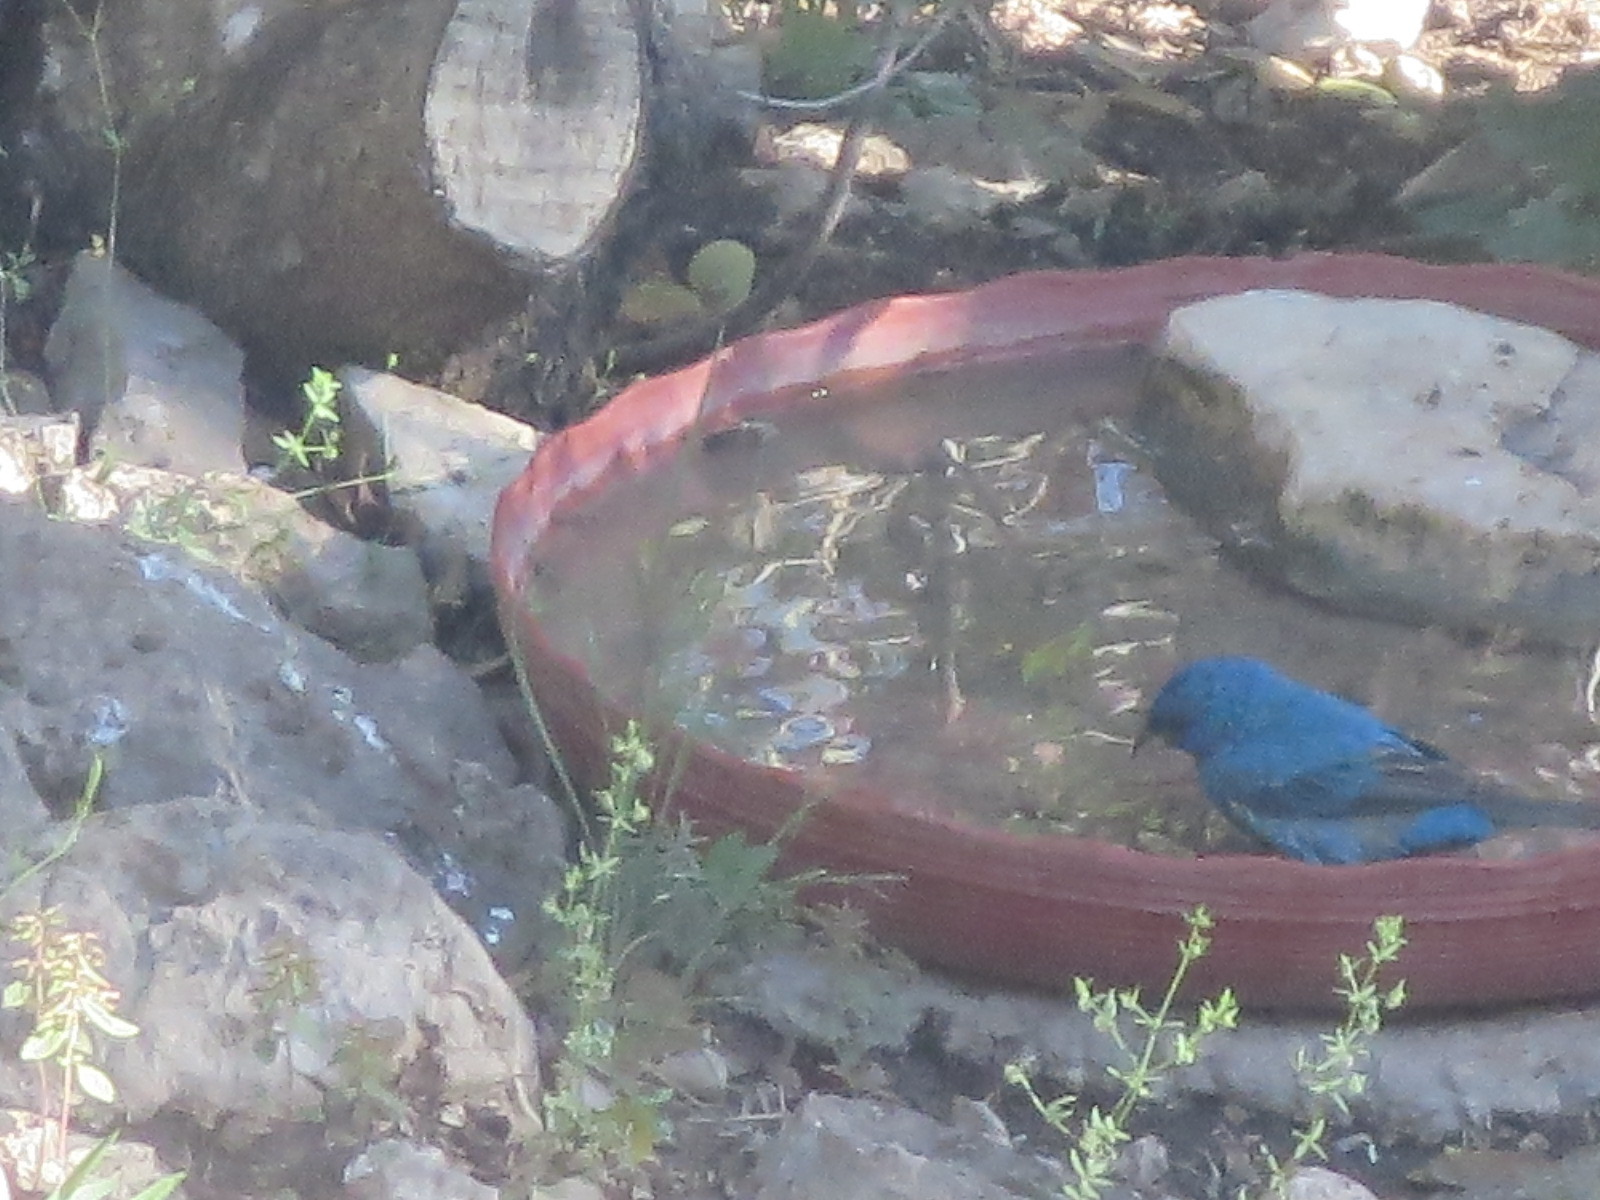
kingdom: Animalia
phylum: Chordata
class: Aves
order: Passeriformes
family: Cardinalidae
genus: Passerina
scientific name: Passerina cyanea
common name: Indigo bunting
